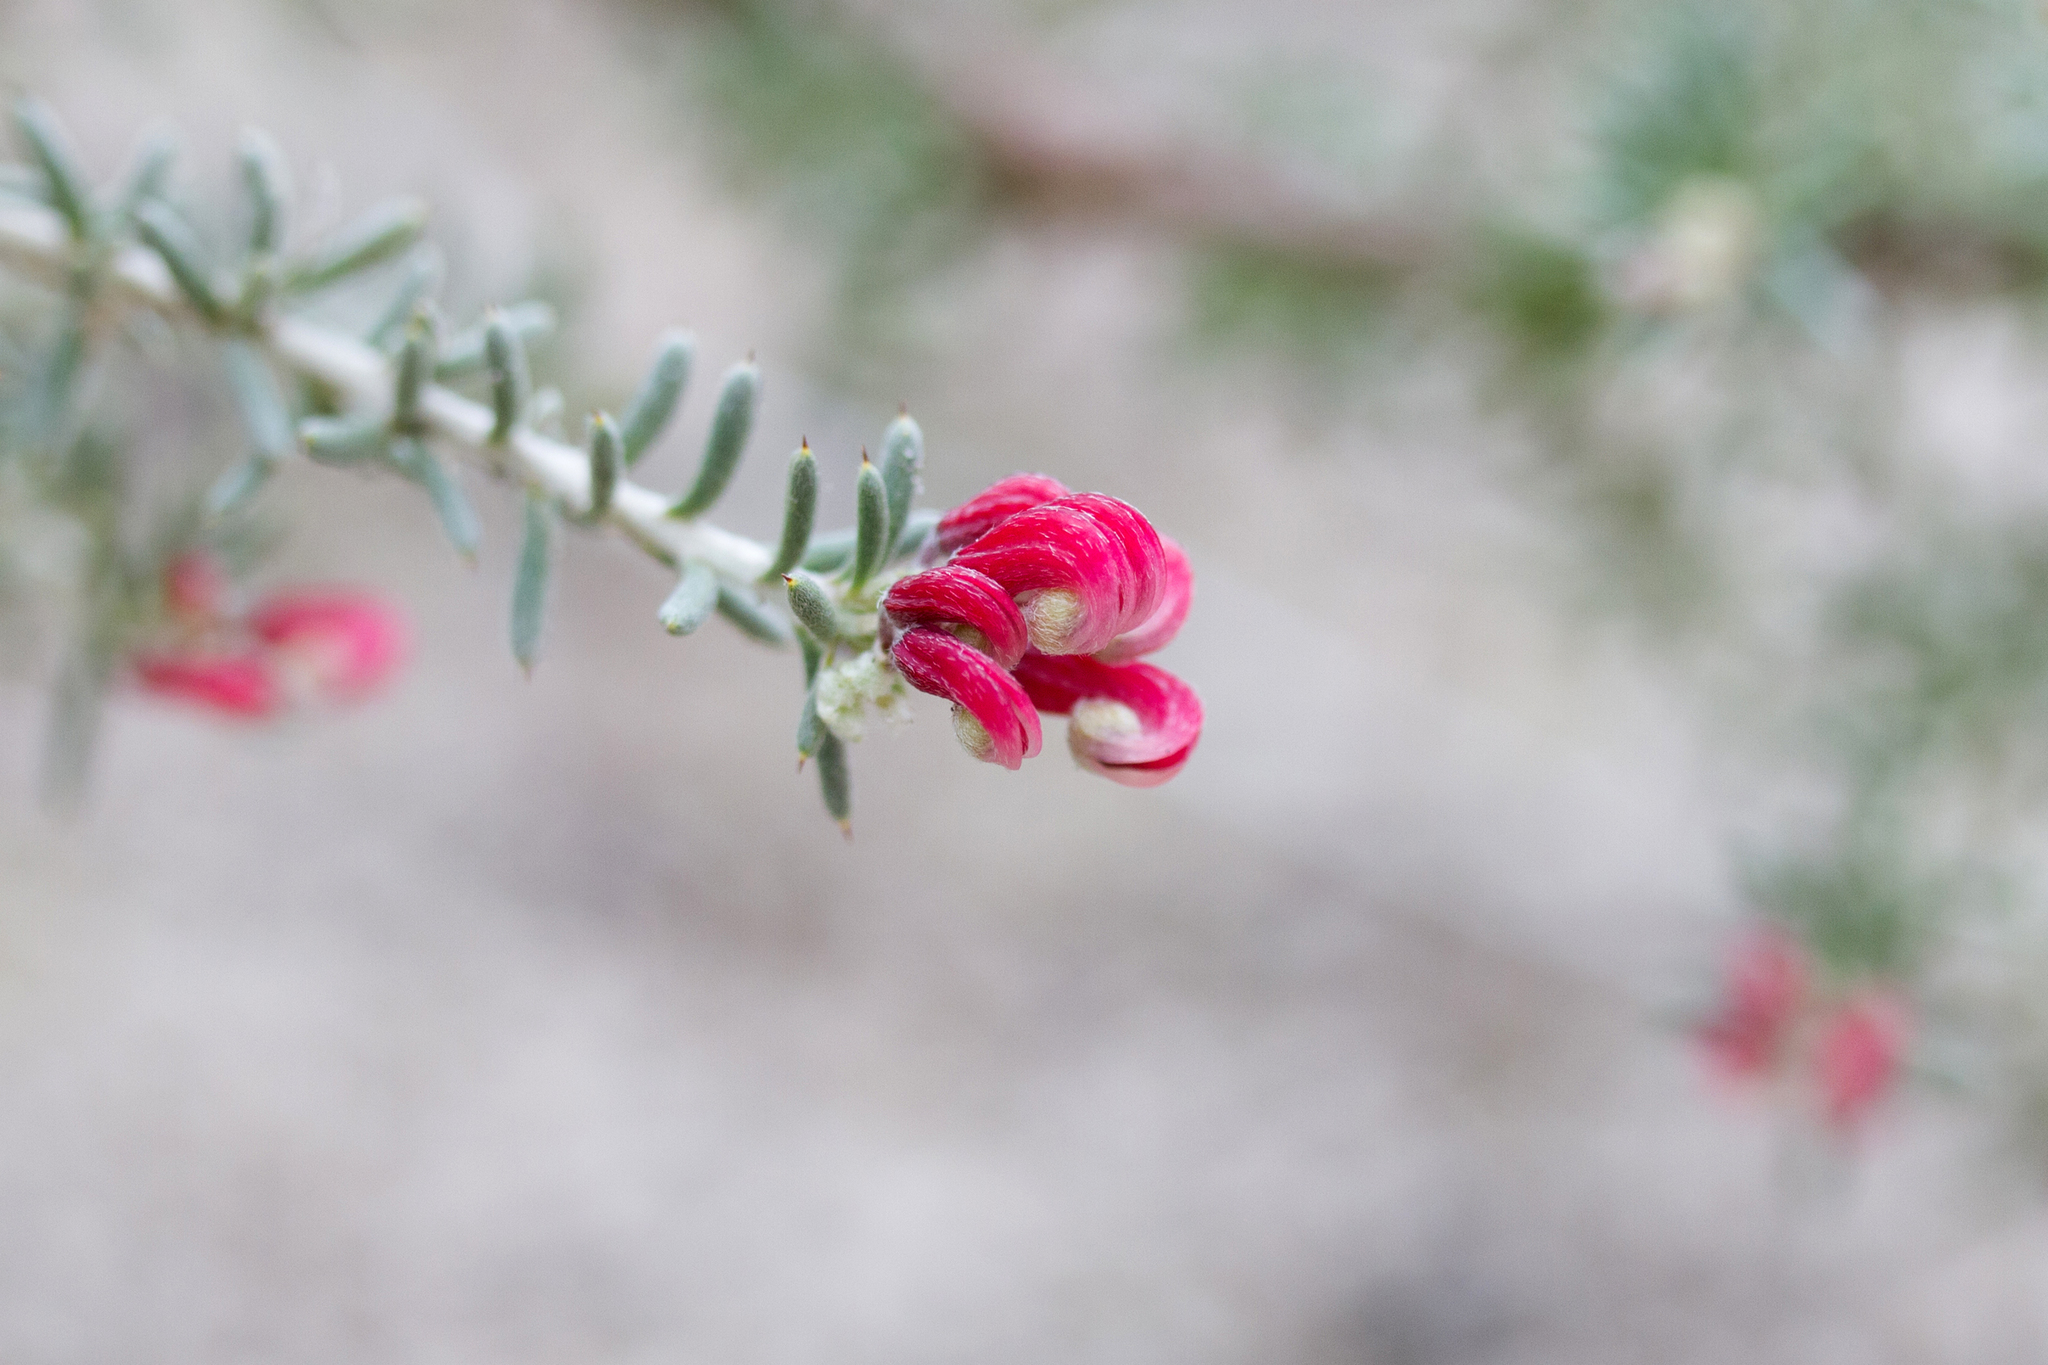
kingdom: Plantae
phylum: Tracheophyta
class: Magnoliopsida
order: Proteales
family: Proteaceae
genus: Grevillea
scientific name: Grevillea lavandulacea
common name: Lavender grevillea
